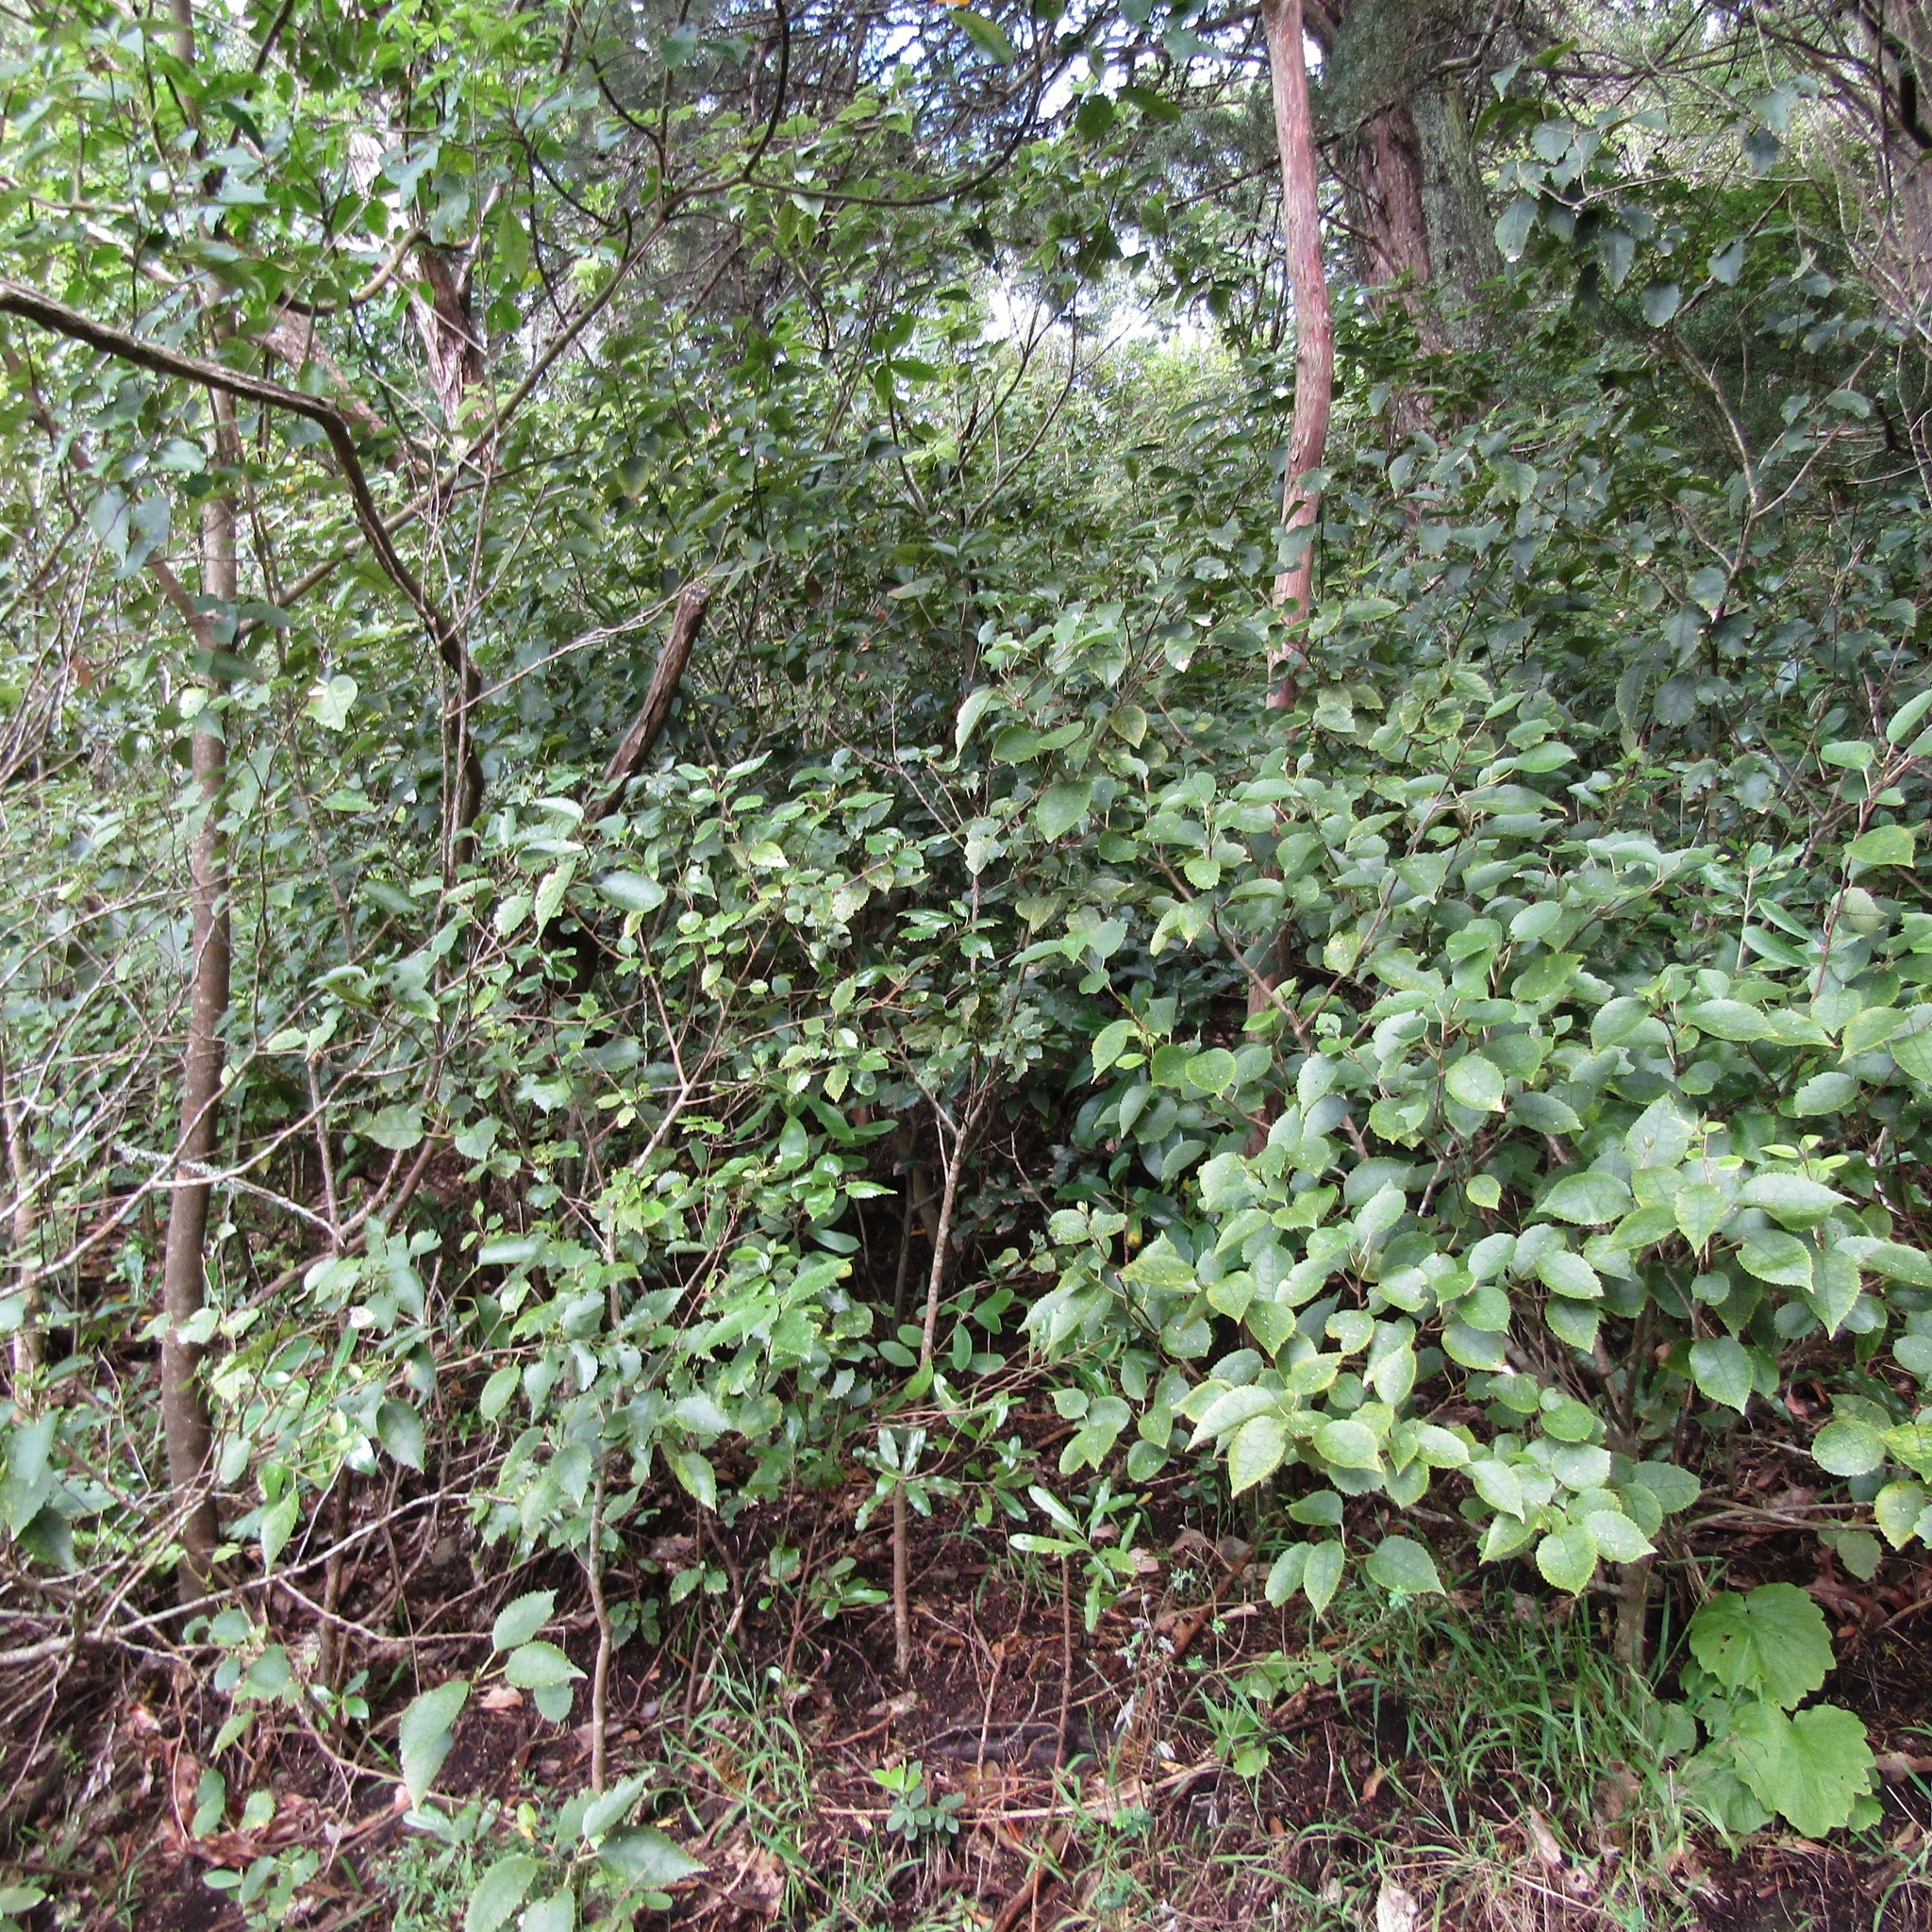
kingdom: Plantae
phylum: Tracheophyta
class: Magnoliopsida
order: Malvales
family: Malvaceae
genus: Hoheria
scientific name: Hoheria populnea
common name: Lacebark
